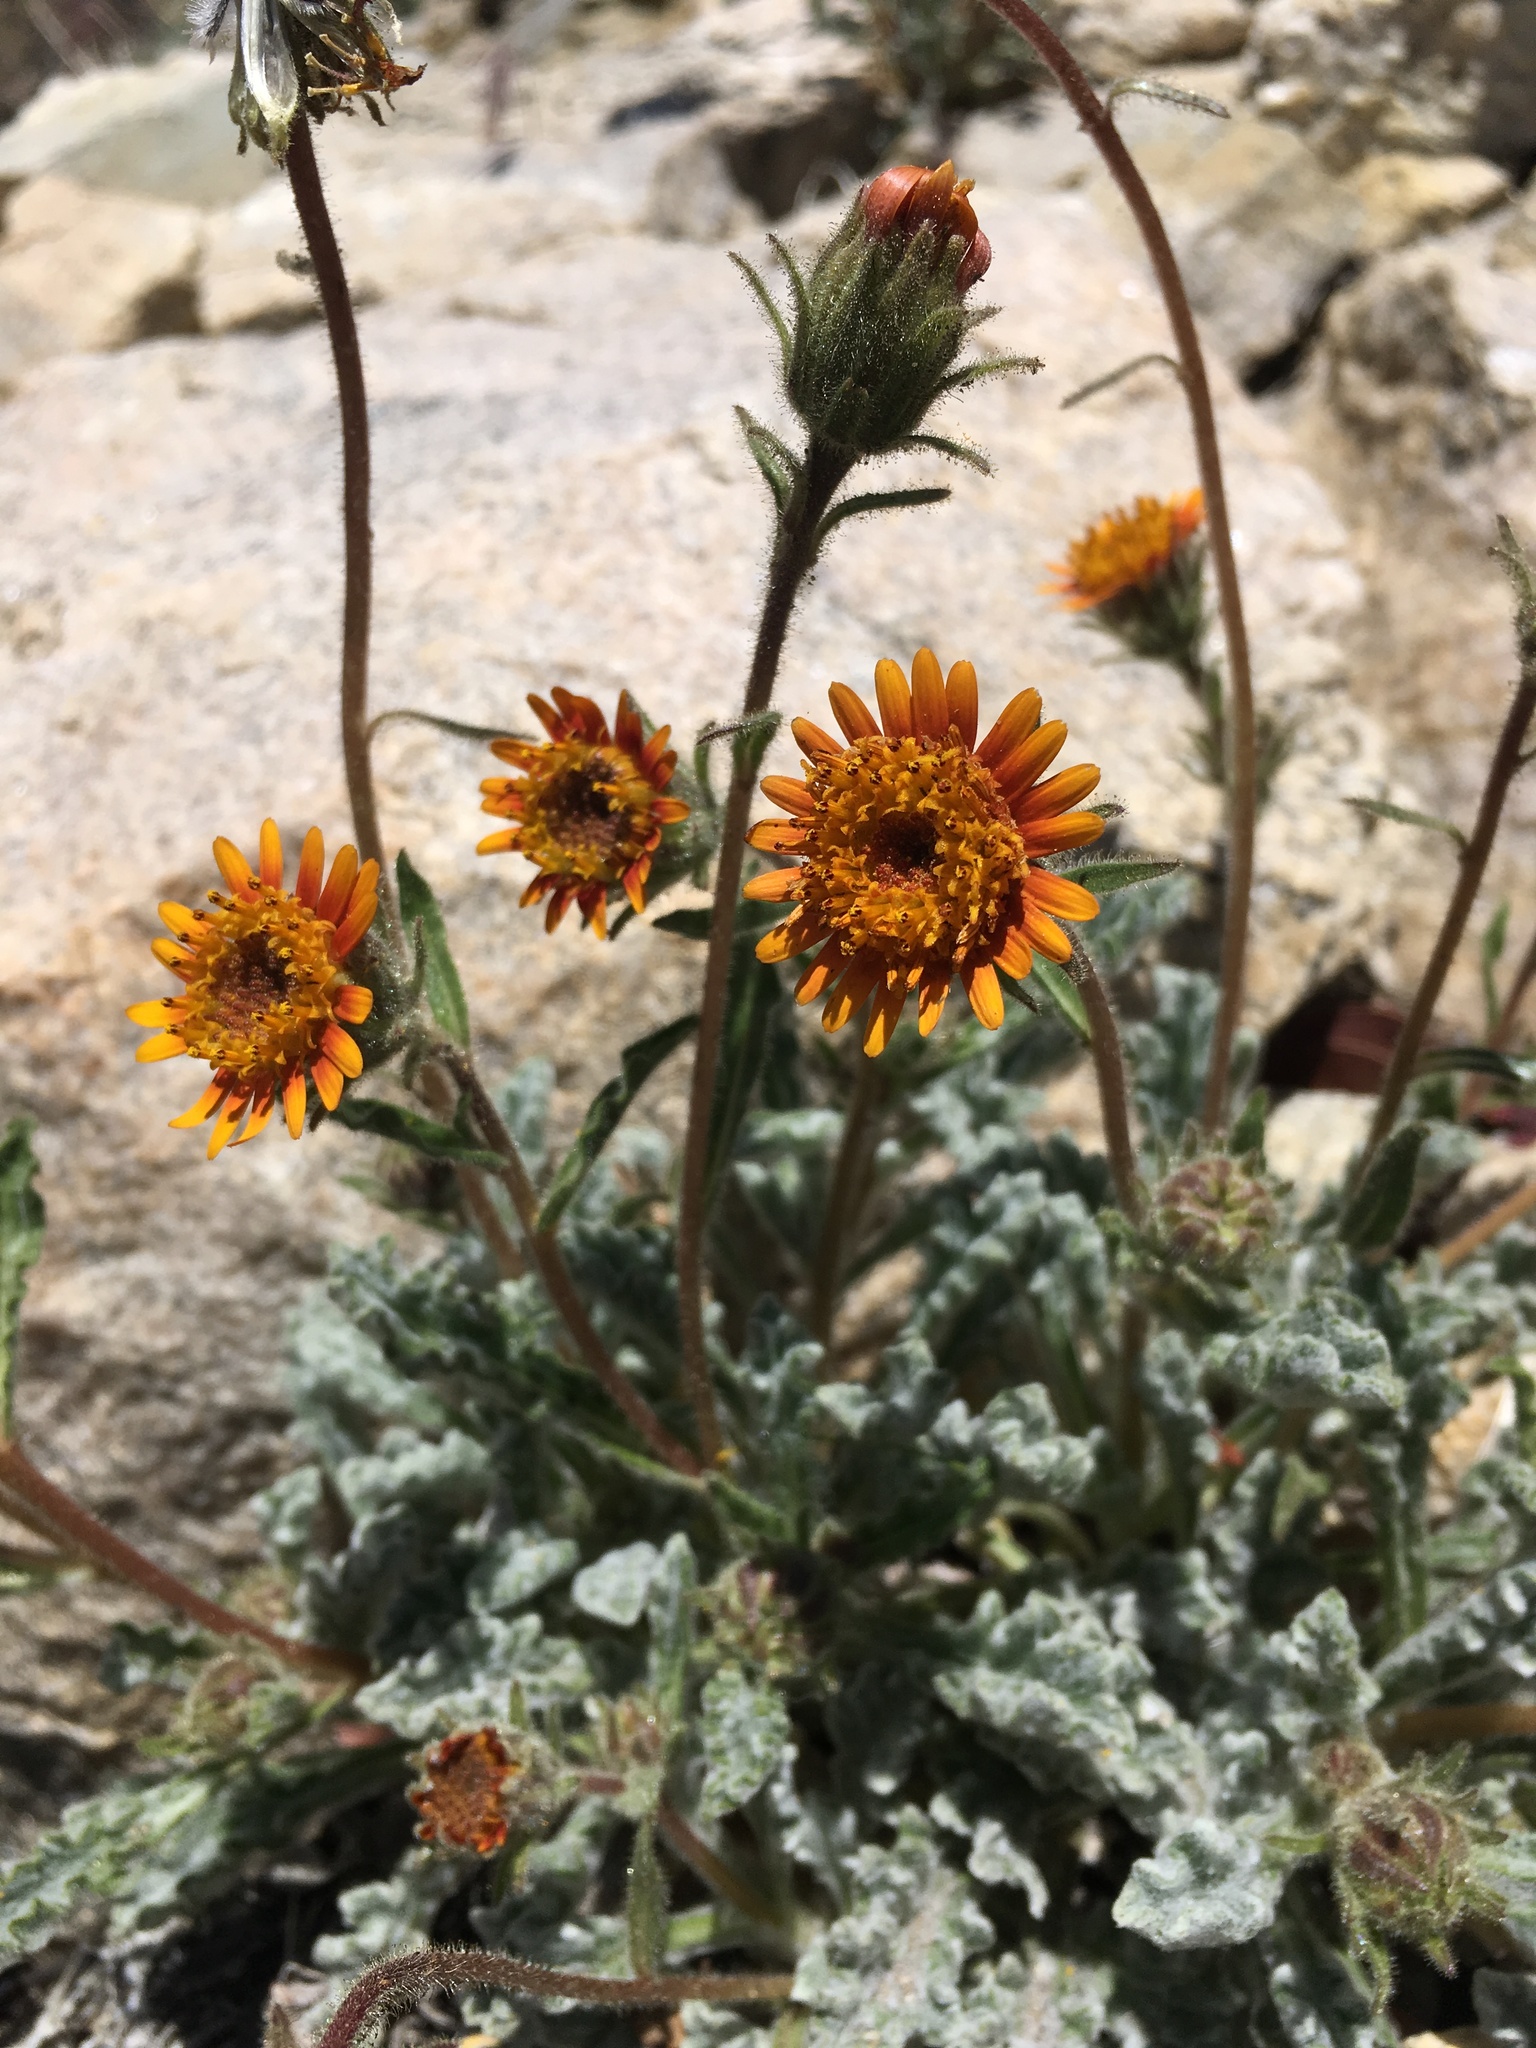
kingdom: Plantae
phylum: Tracheophyta
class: Magnoliopsida
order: Asterales
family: Asteraceae
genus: Hulsea
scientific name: Hulsea vestita
